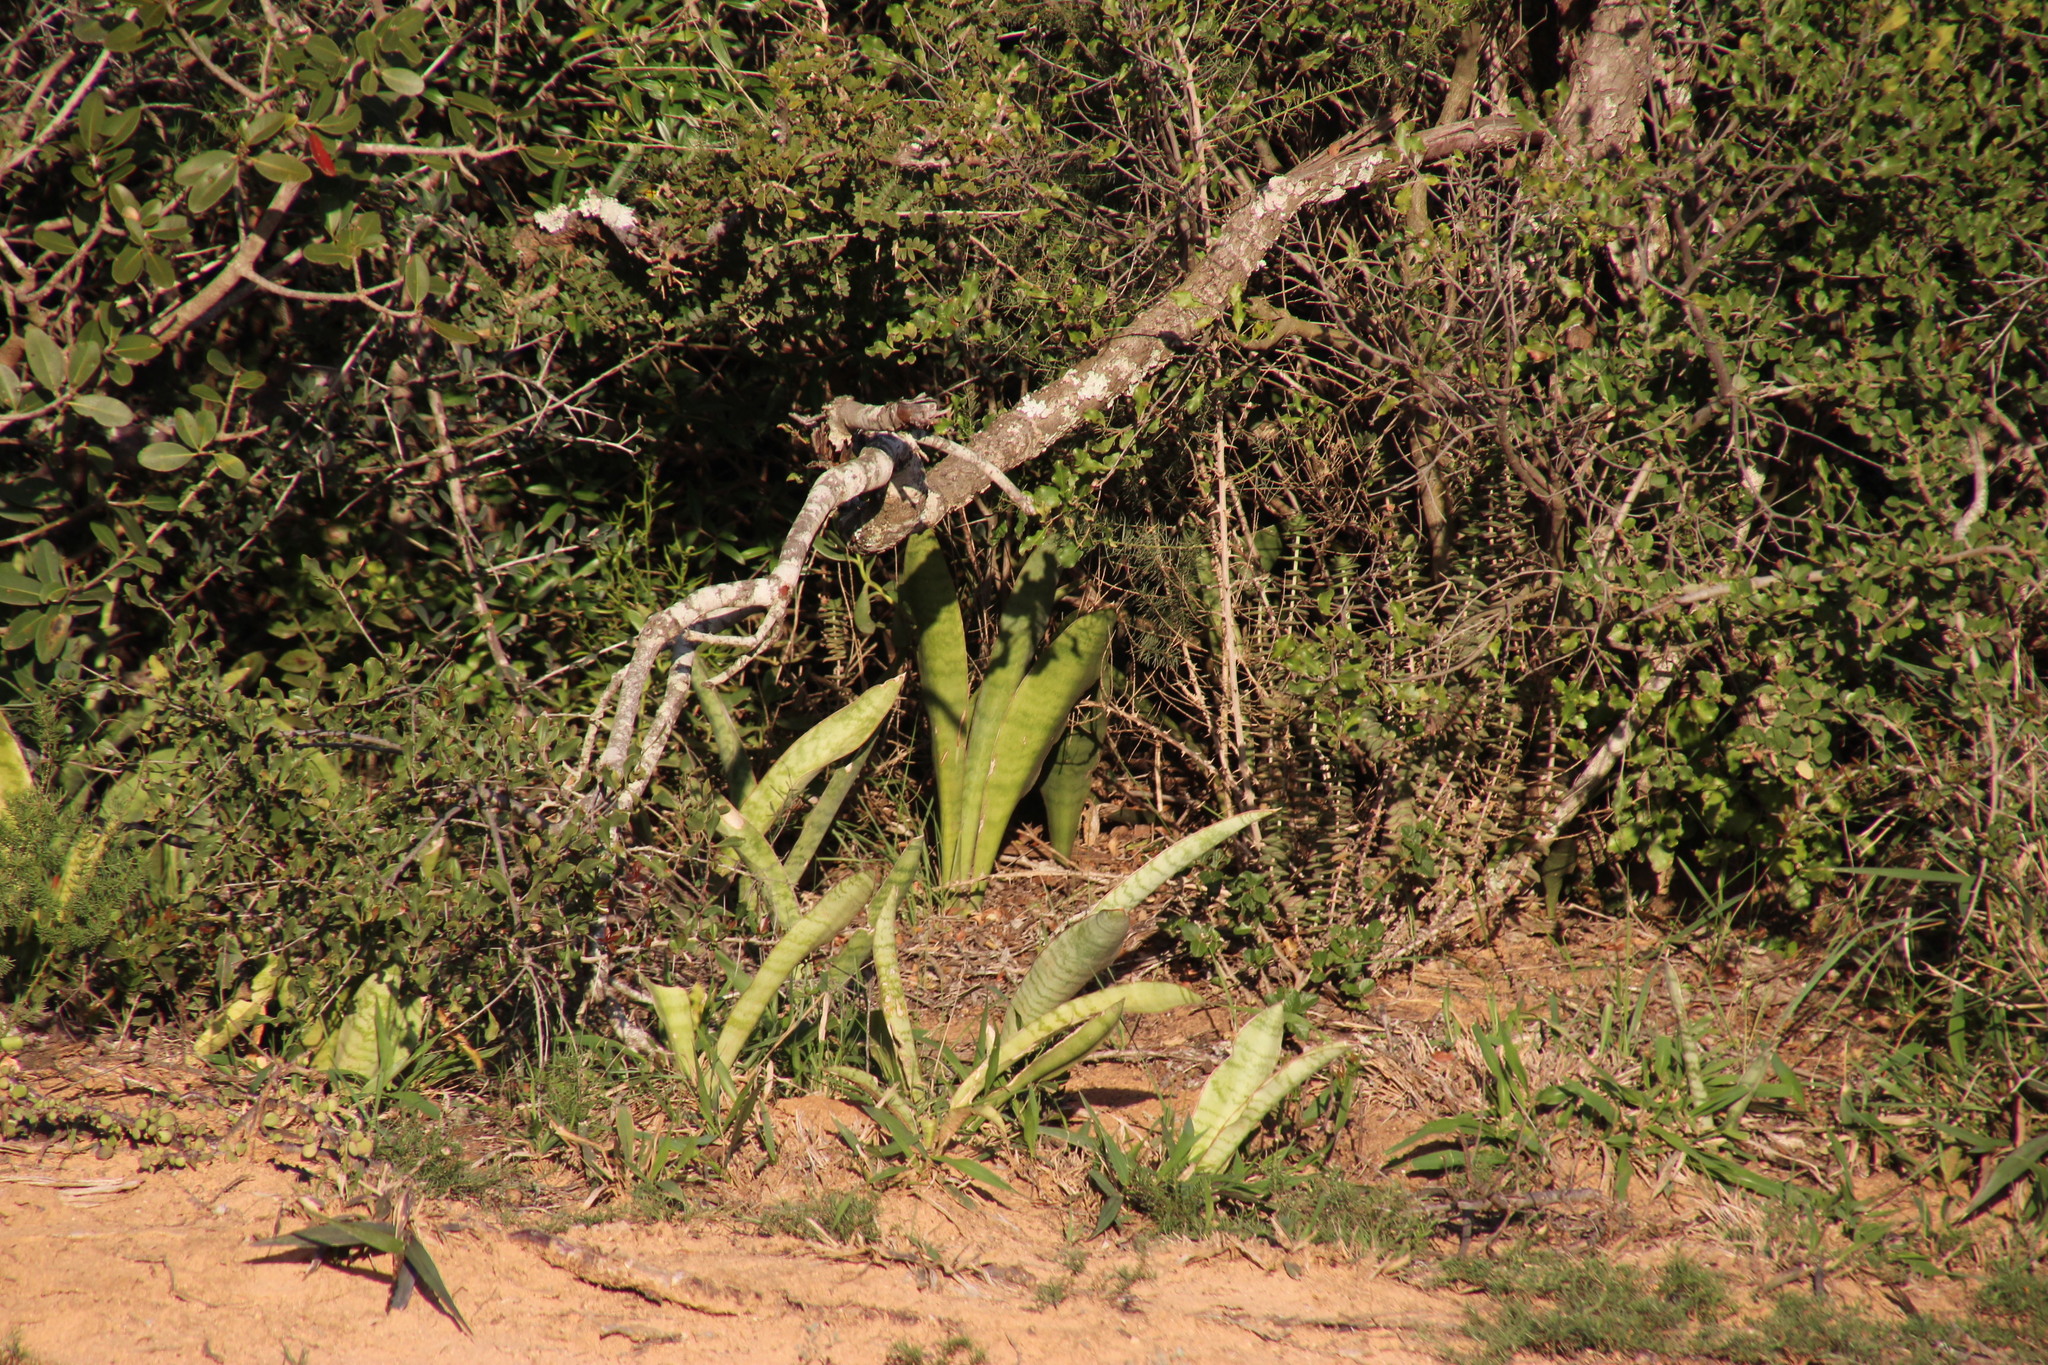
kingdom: Plantae
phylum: Tracheophyta
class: Liliopsida
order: Asparagales
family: Asparagaceae
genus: Dracaena
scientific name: Dracaena hyacinthoides
